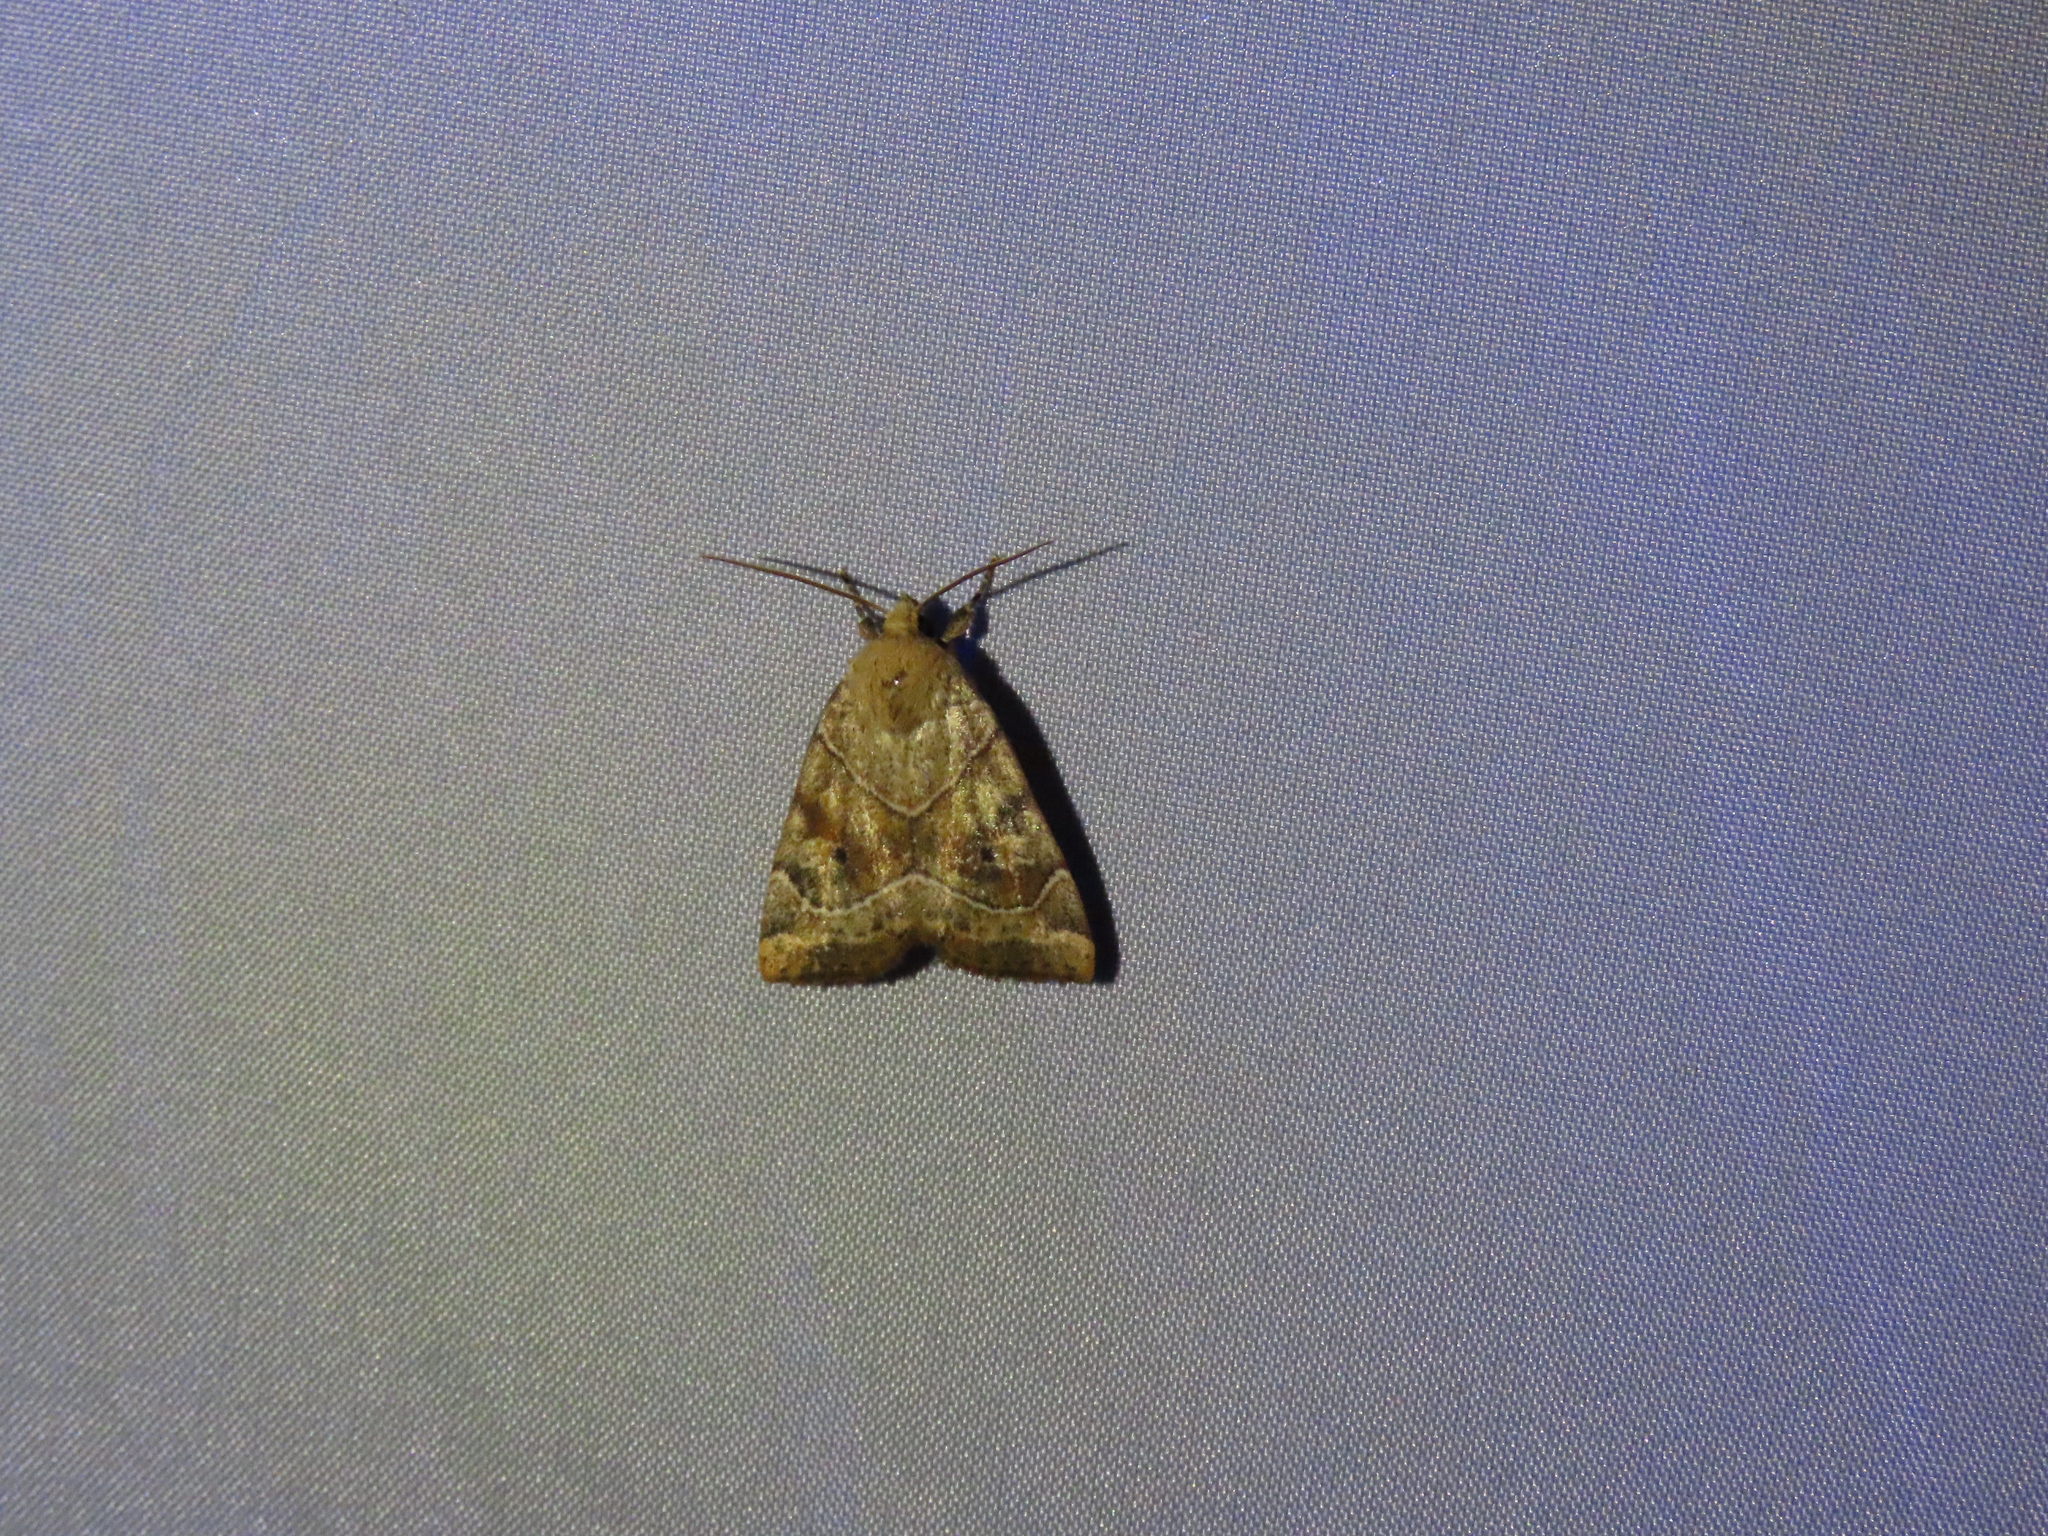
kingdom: Animalia
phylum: Arthropoda
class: Insecta
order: Lepidoptera
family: Noctuidae
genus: Cosmia
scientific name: Cosmia trapezina
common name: Dun-bar
